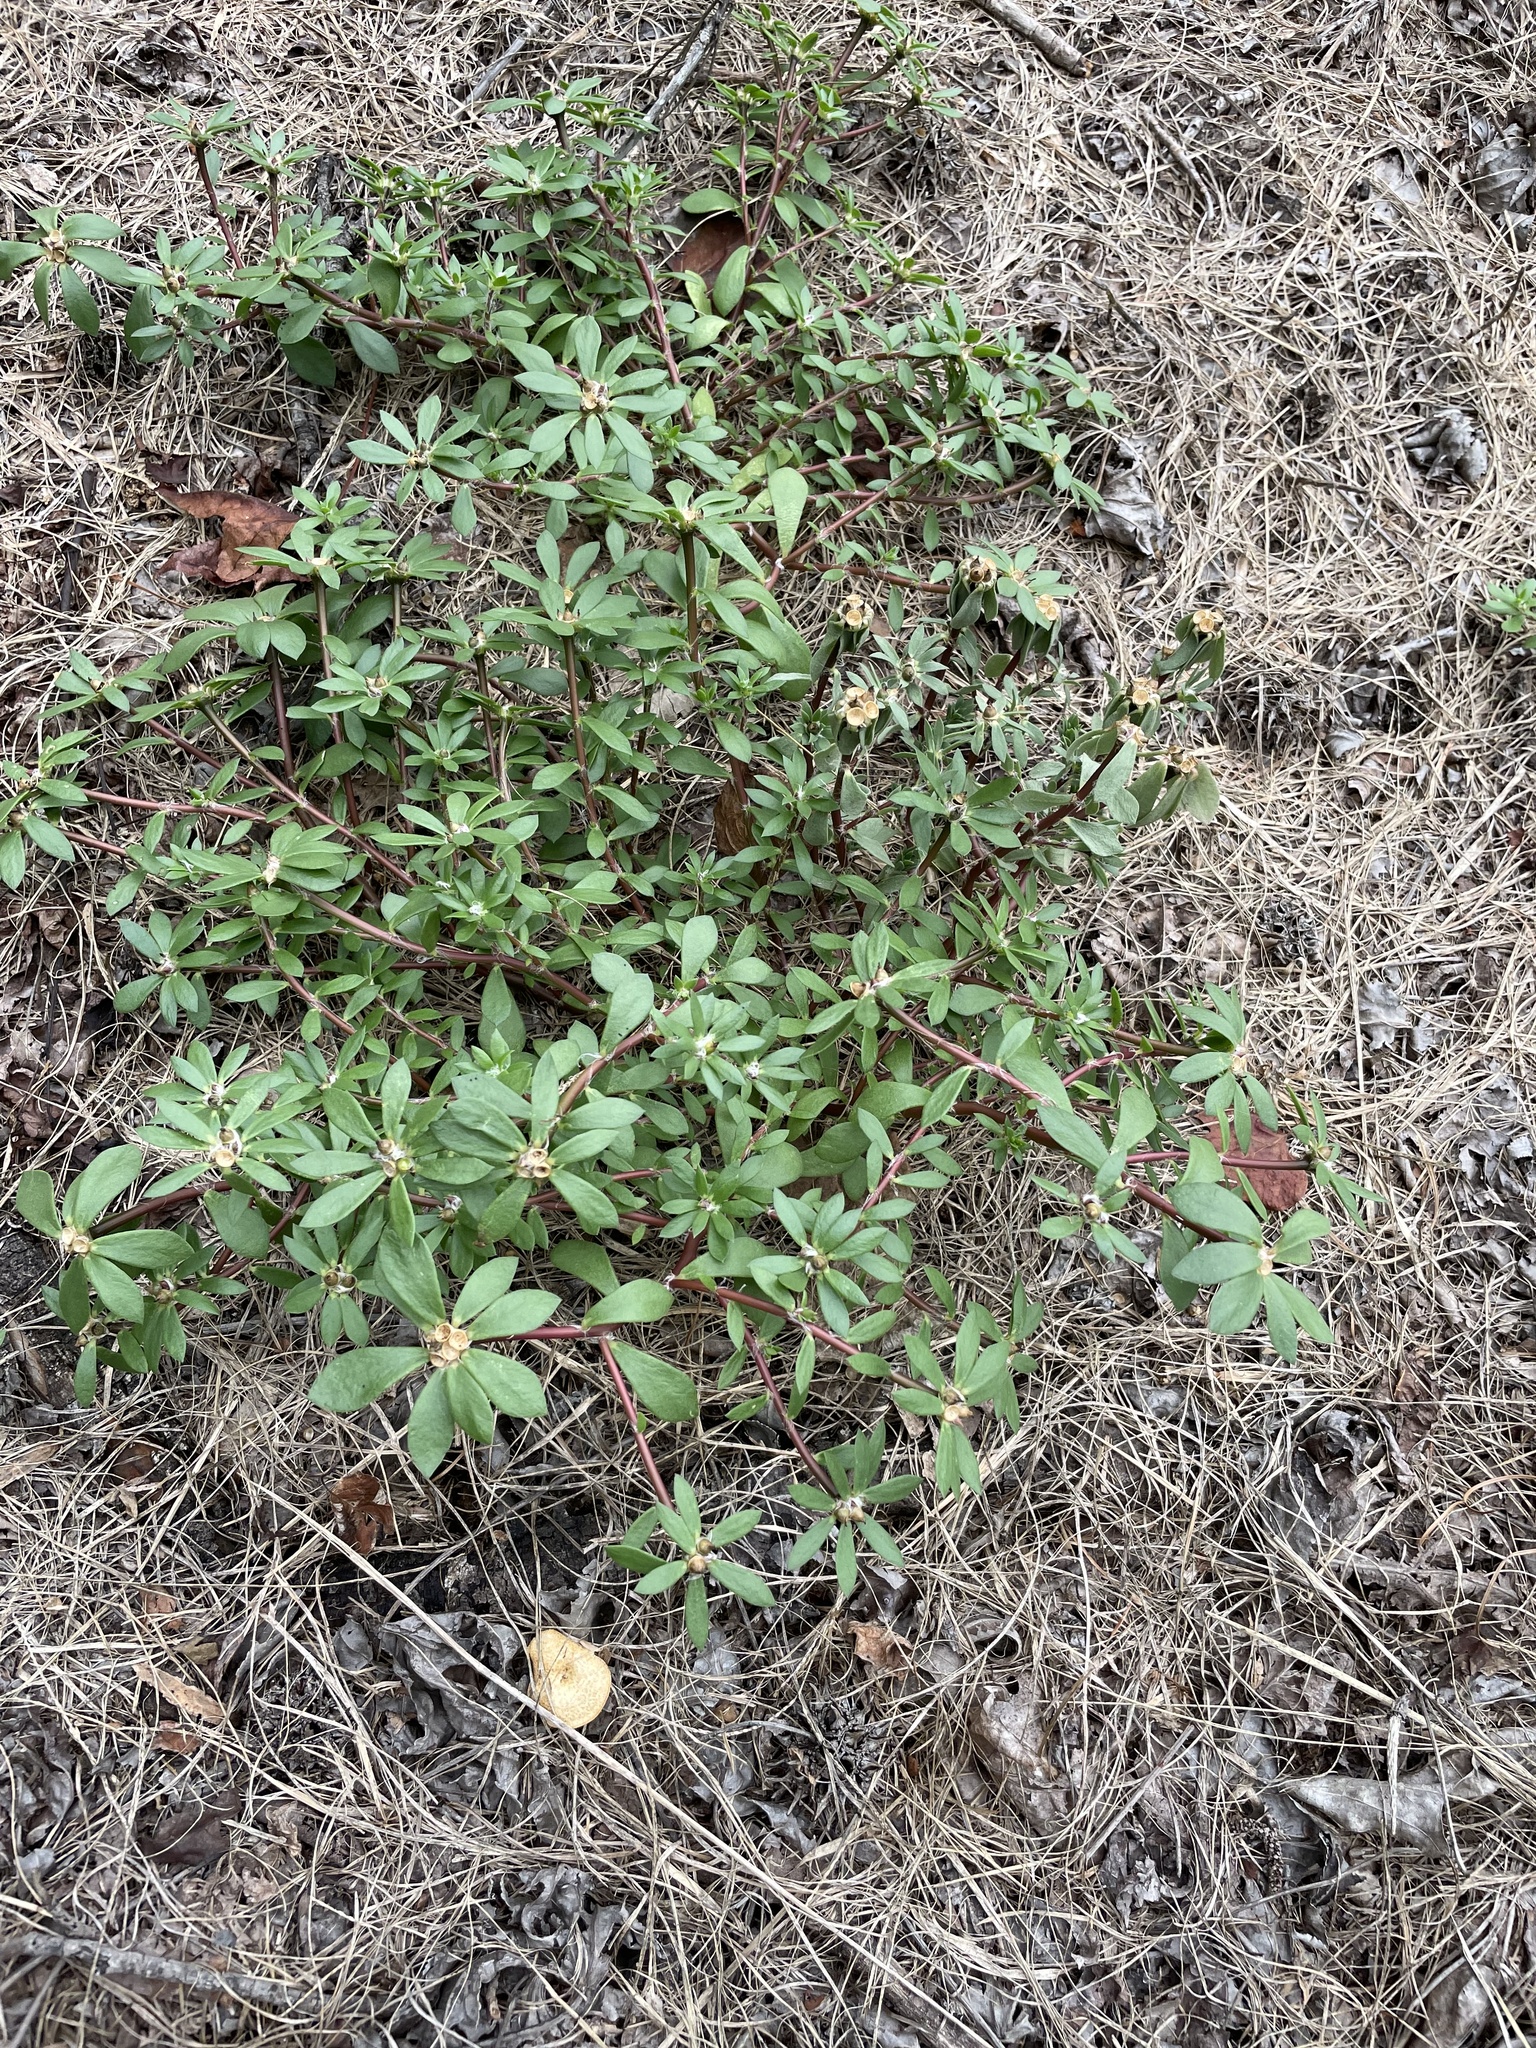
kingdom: Plantae
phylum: Tracheophyta
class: Magnoliopsida
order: Caryophyllales
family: Portulacaceae
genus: Portulaca
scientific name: Portulaca amilis
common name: Paraguayan purslane
